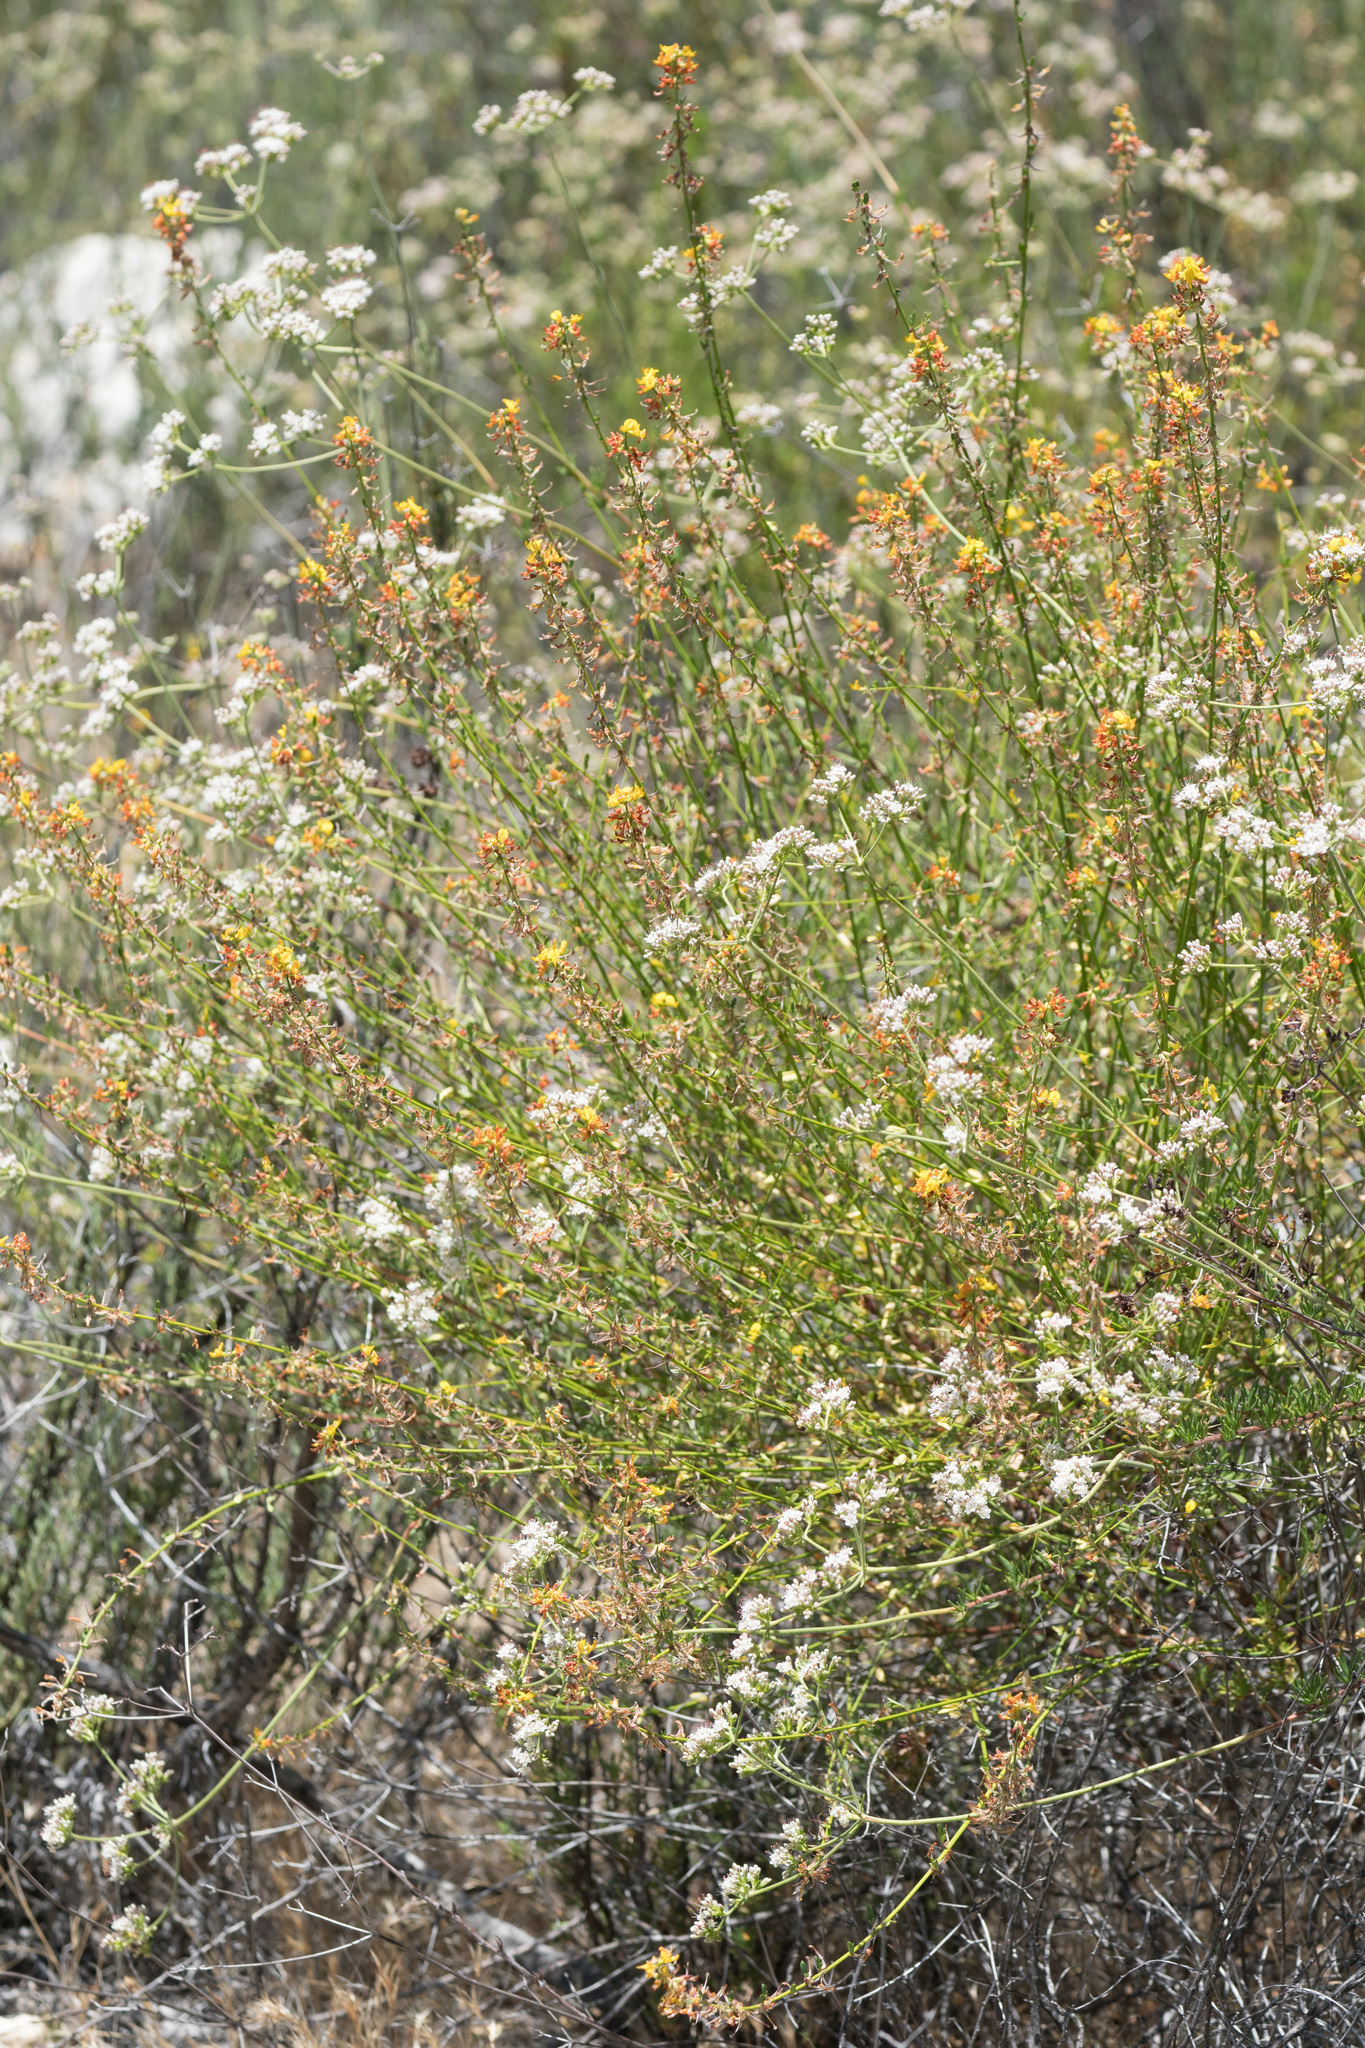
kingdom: Plantae
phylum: Tracheophyta
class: Magnoliopsida
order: Fabales
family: Fabaceae
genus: Acmispon
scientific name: Acmispon glaber
